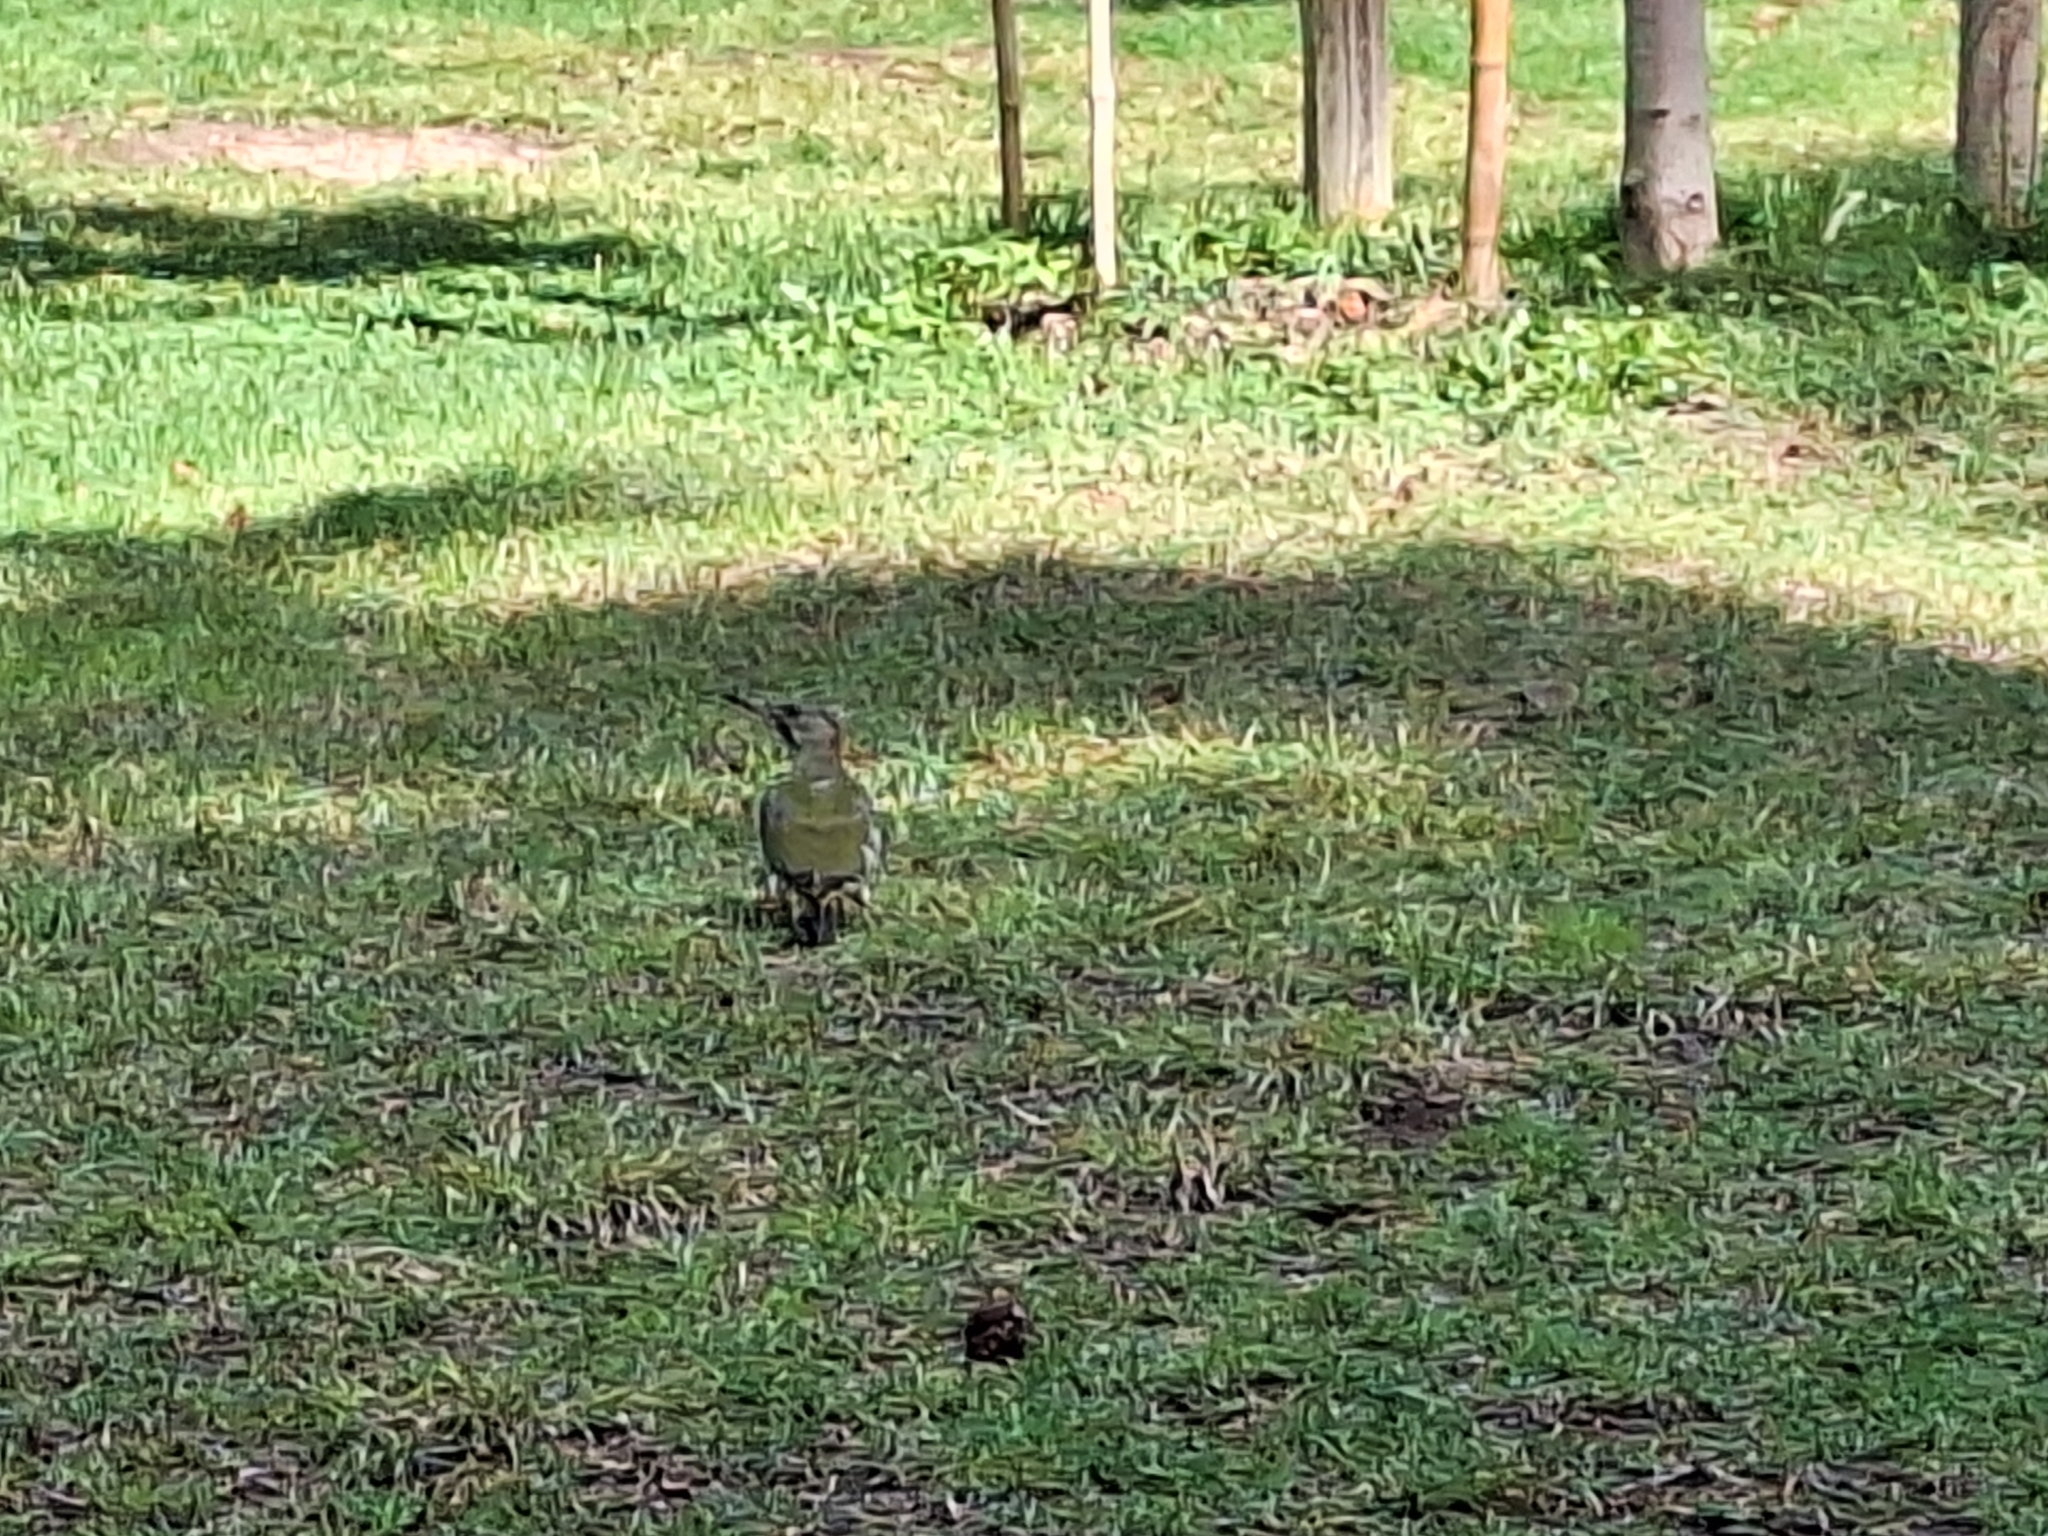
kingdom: Animalia
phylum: Chordata
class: Aves
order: Piciformes
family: Picidae
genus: Picus
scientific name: Picus sharpei
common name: Iberian green woodpecker
